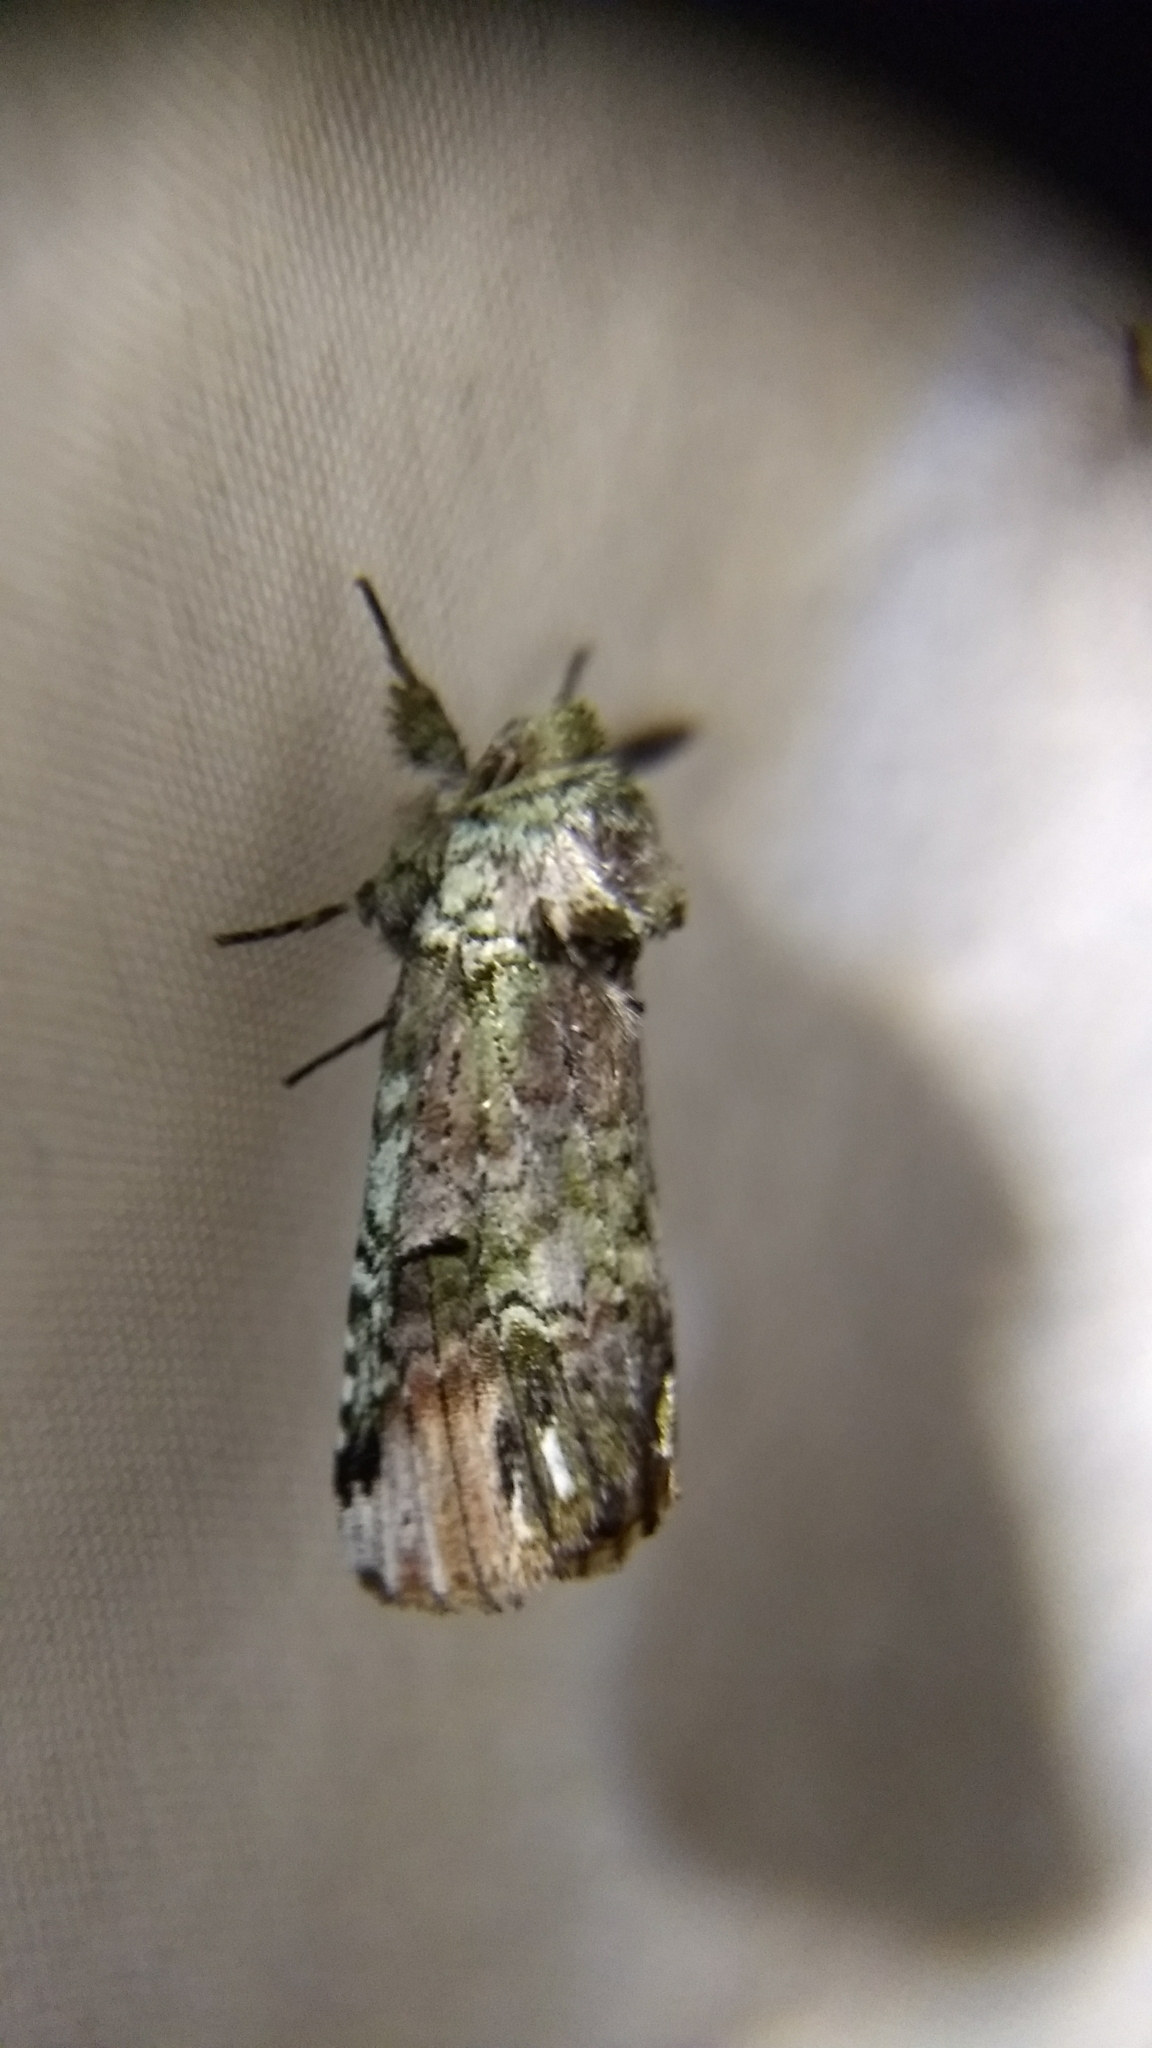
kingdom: Animalia
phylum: Arthropoda
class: Insecta
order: Lepidoptera
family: Notodontidae
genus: Schizura
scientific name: Schizura
